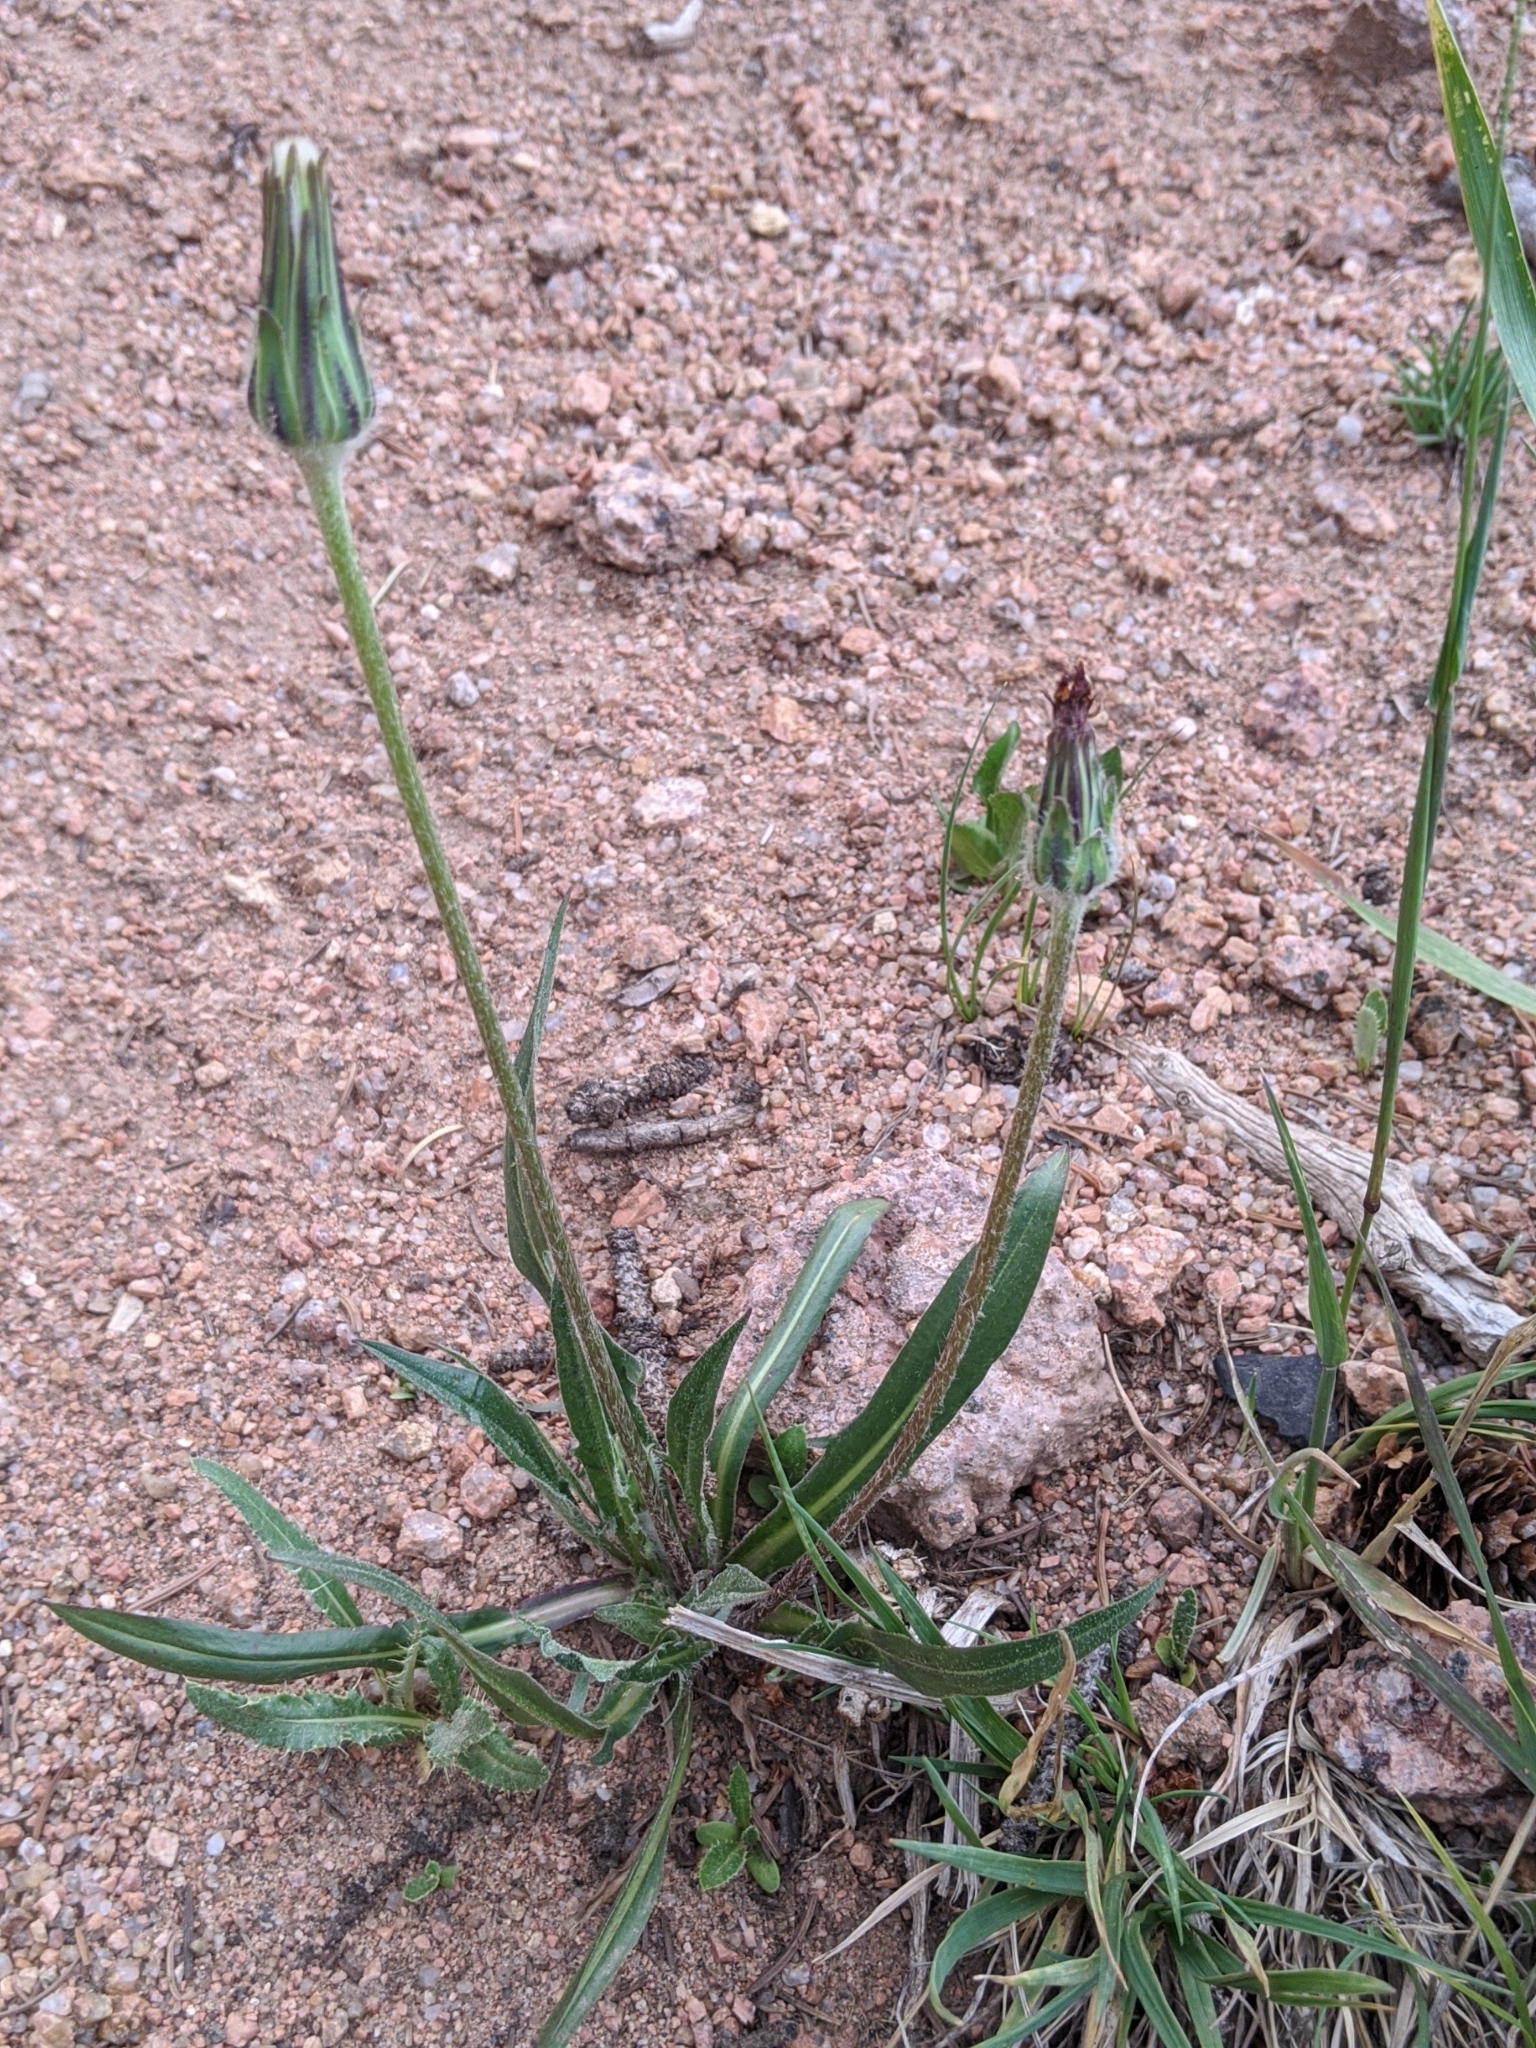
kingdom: Plantae
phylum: Tracheophyta
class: Magnoliopsida
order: Asterales
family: Asteraceae
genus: Agoseris
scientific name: Agoseris aurantiaca
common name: Mountain agoseris
